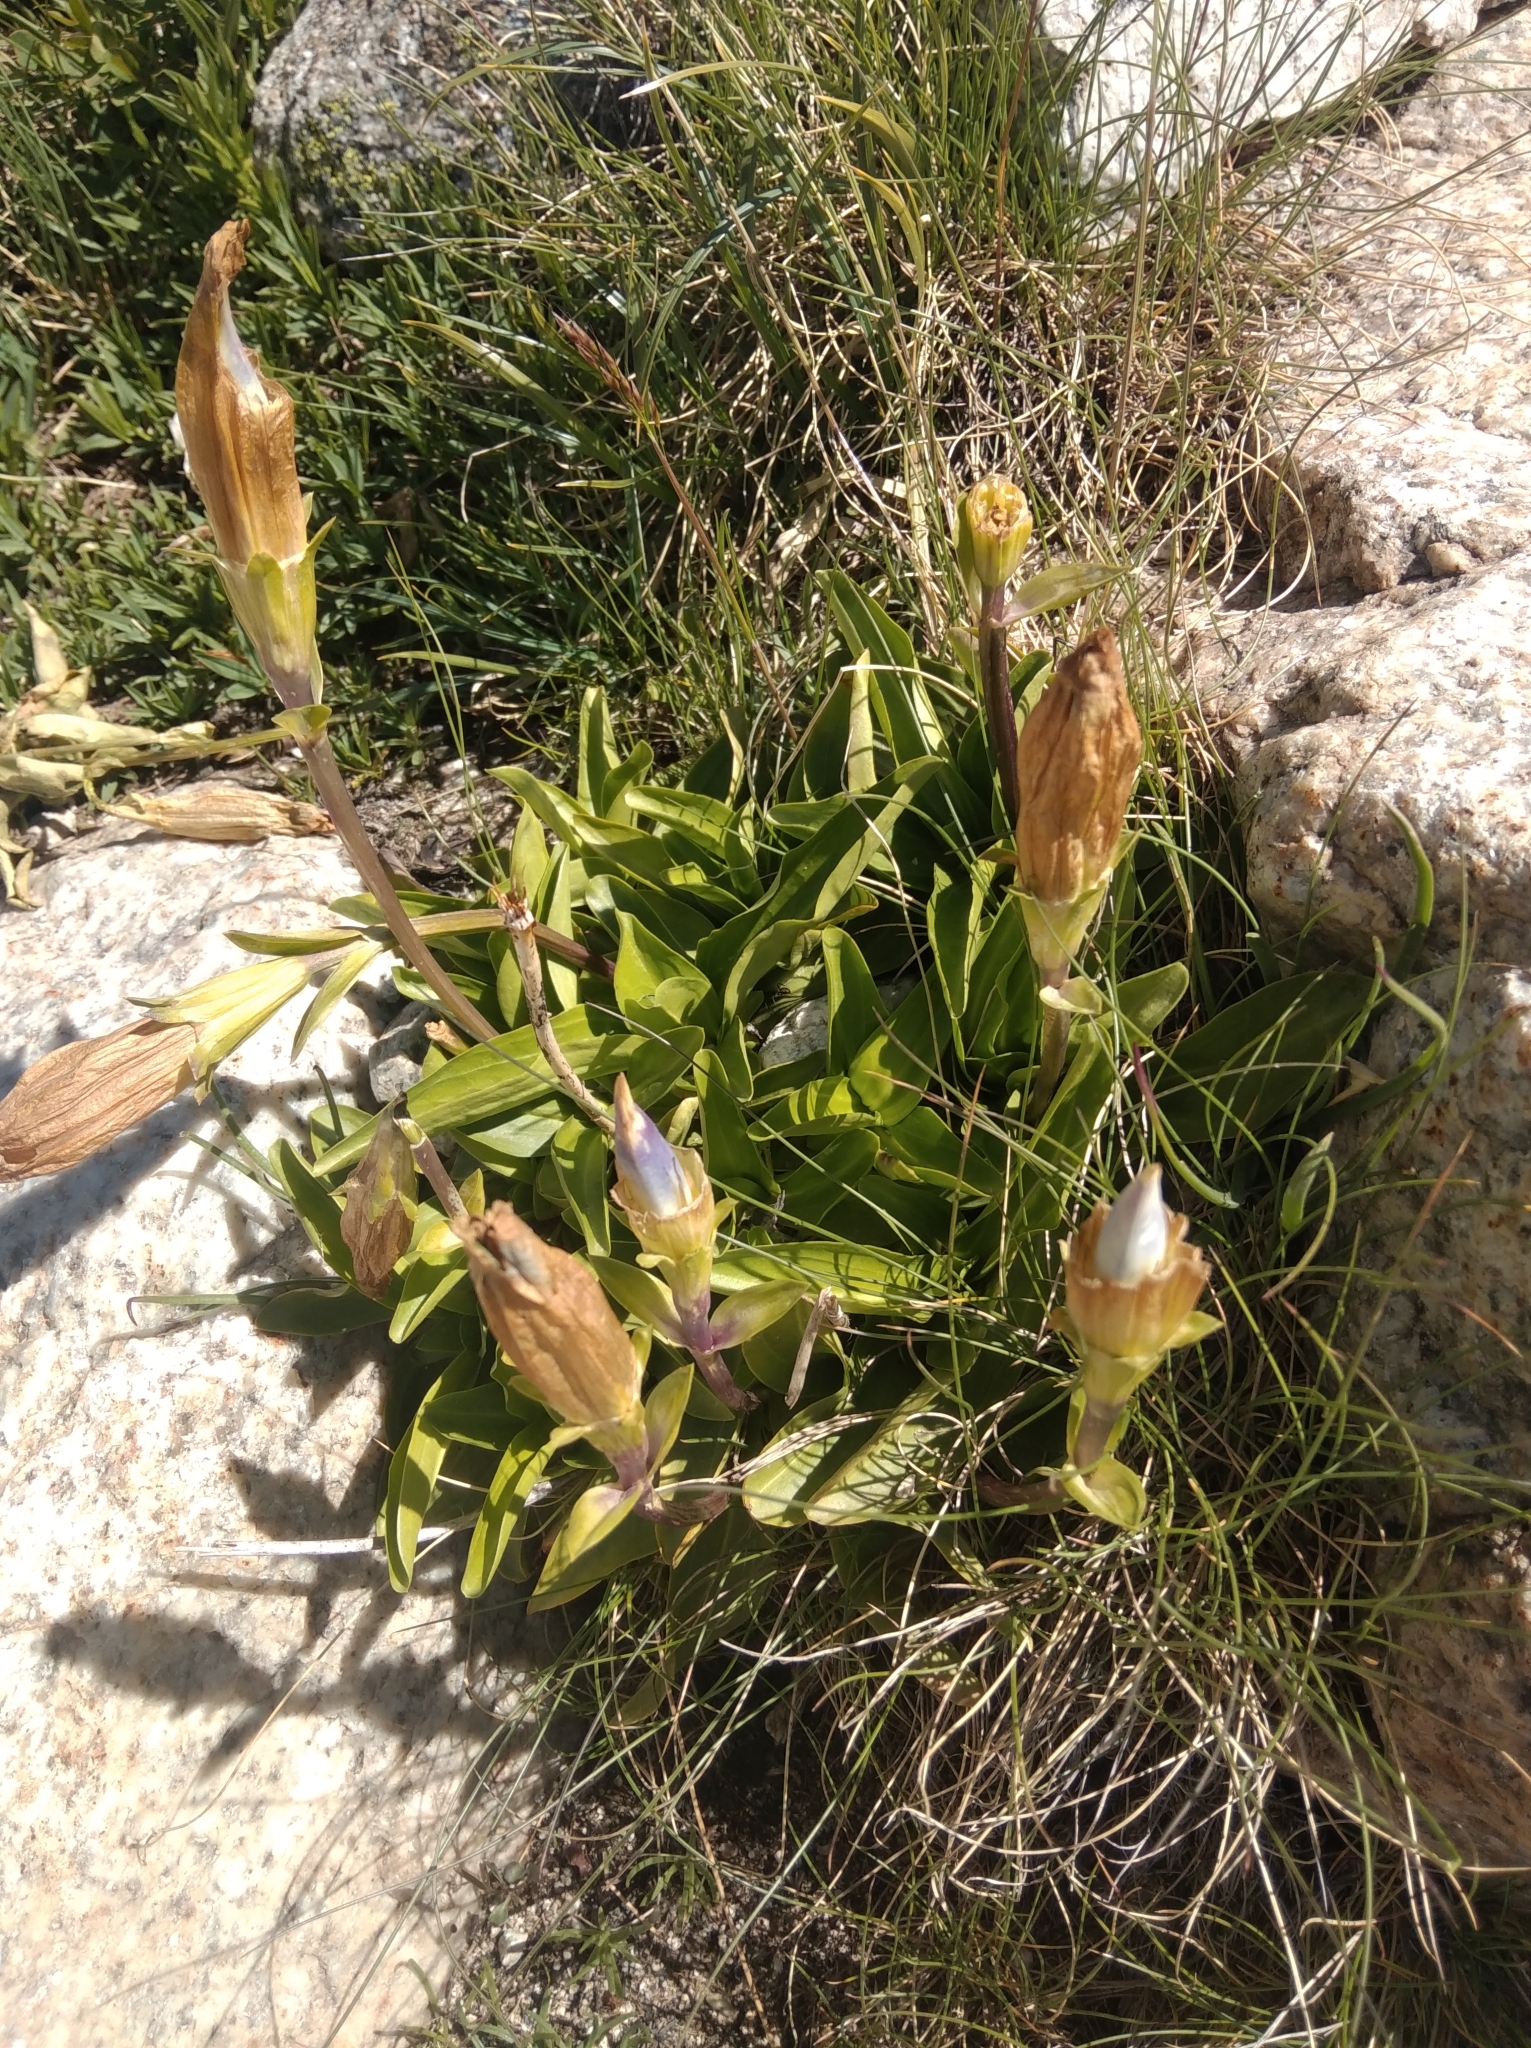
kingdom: Plantae
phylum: Tracheophyta
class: Magnoliopsida
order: Gentianales
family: Gentianaceae
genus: Gentiana
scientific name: Gentiana acaulis
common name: Trumpet gentian
